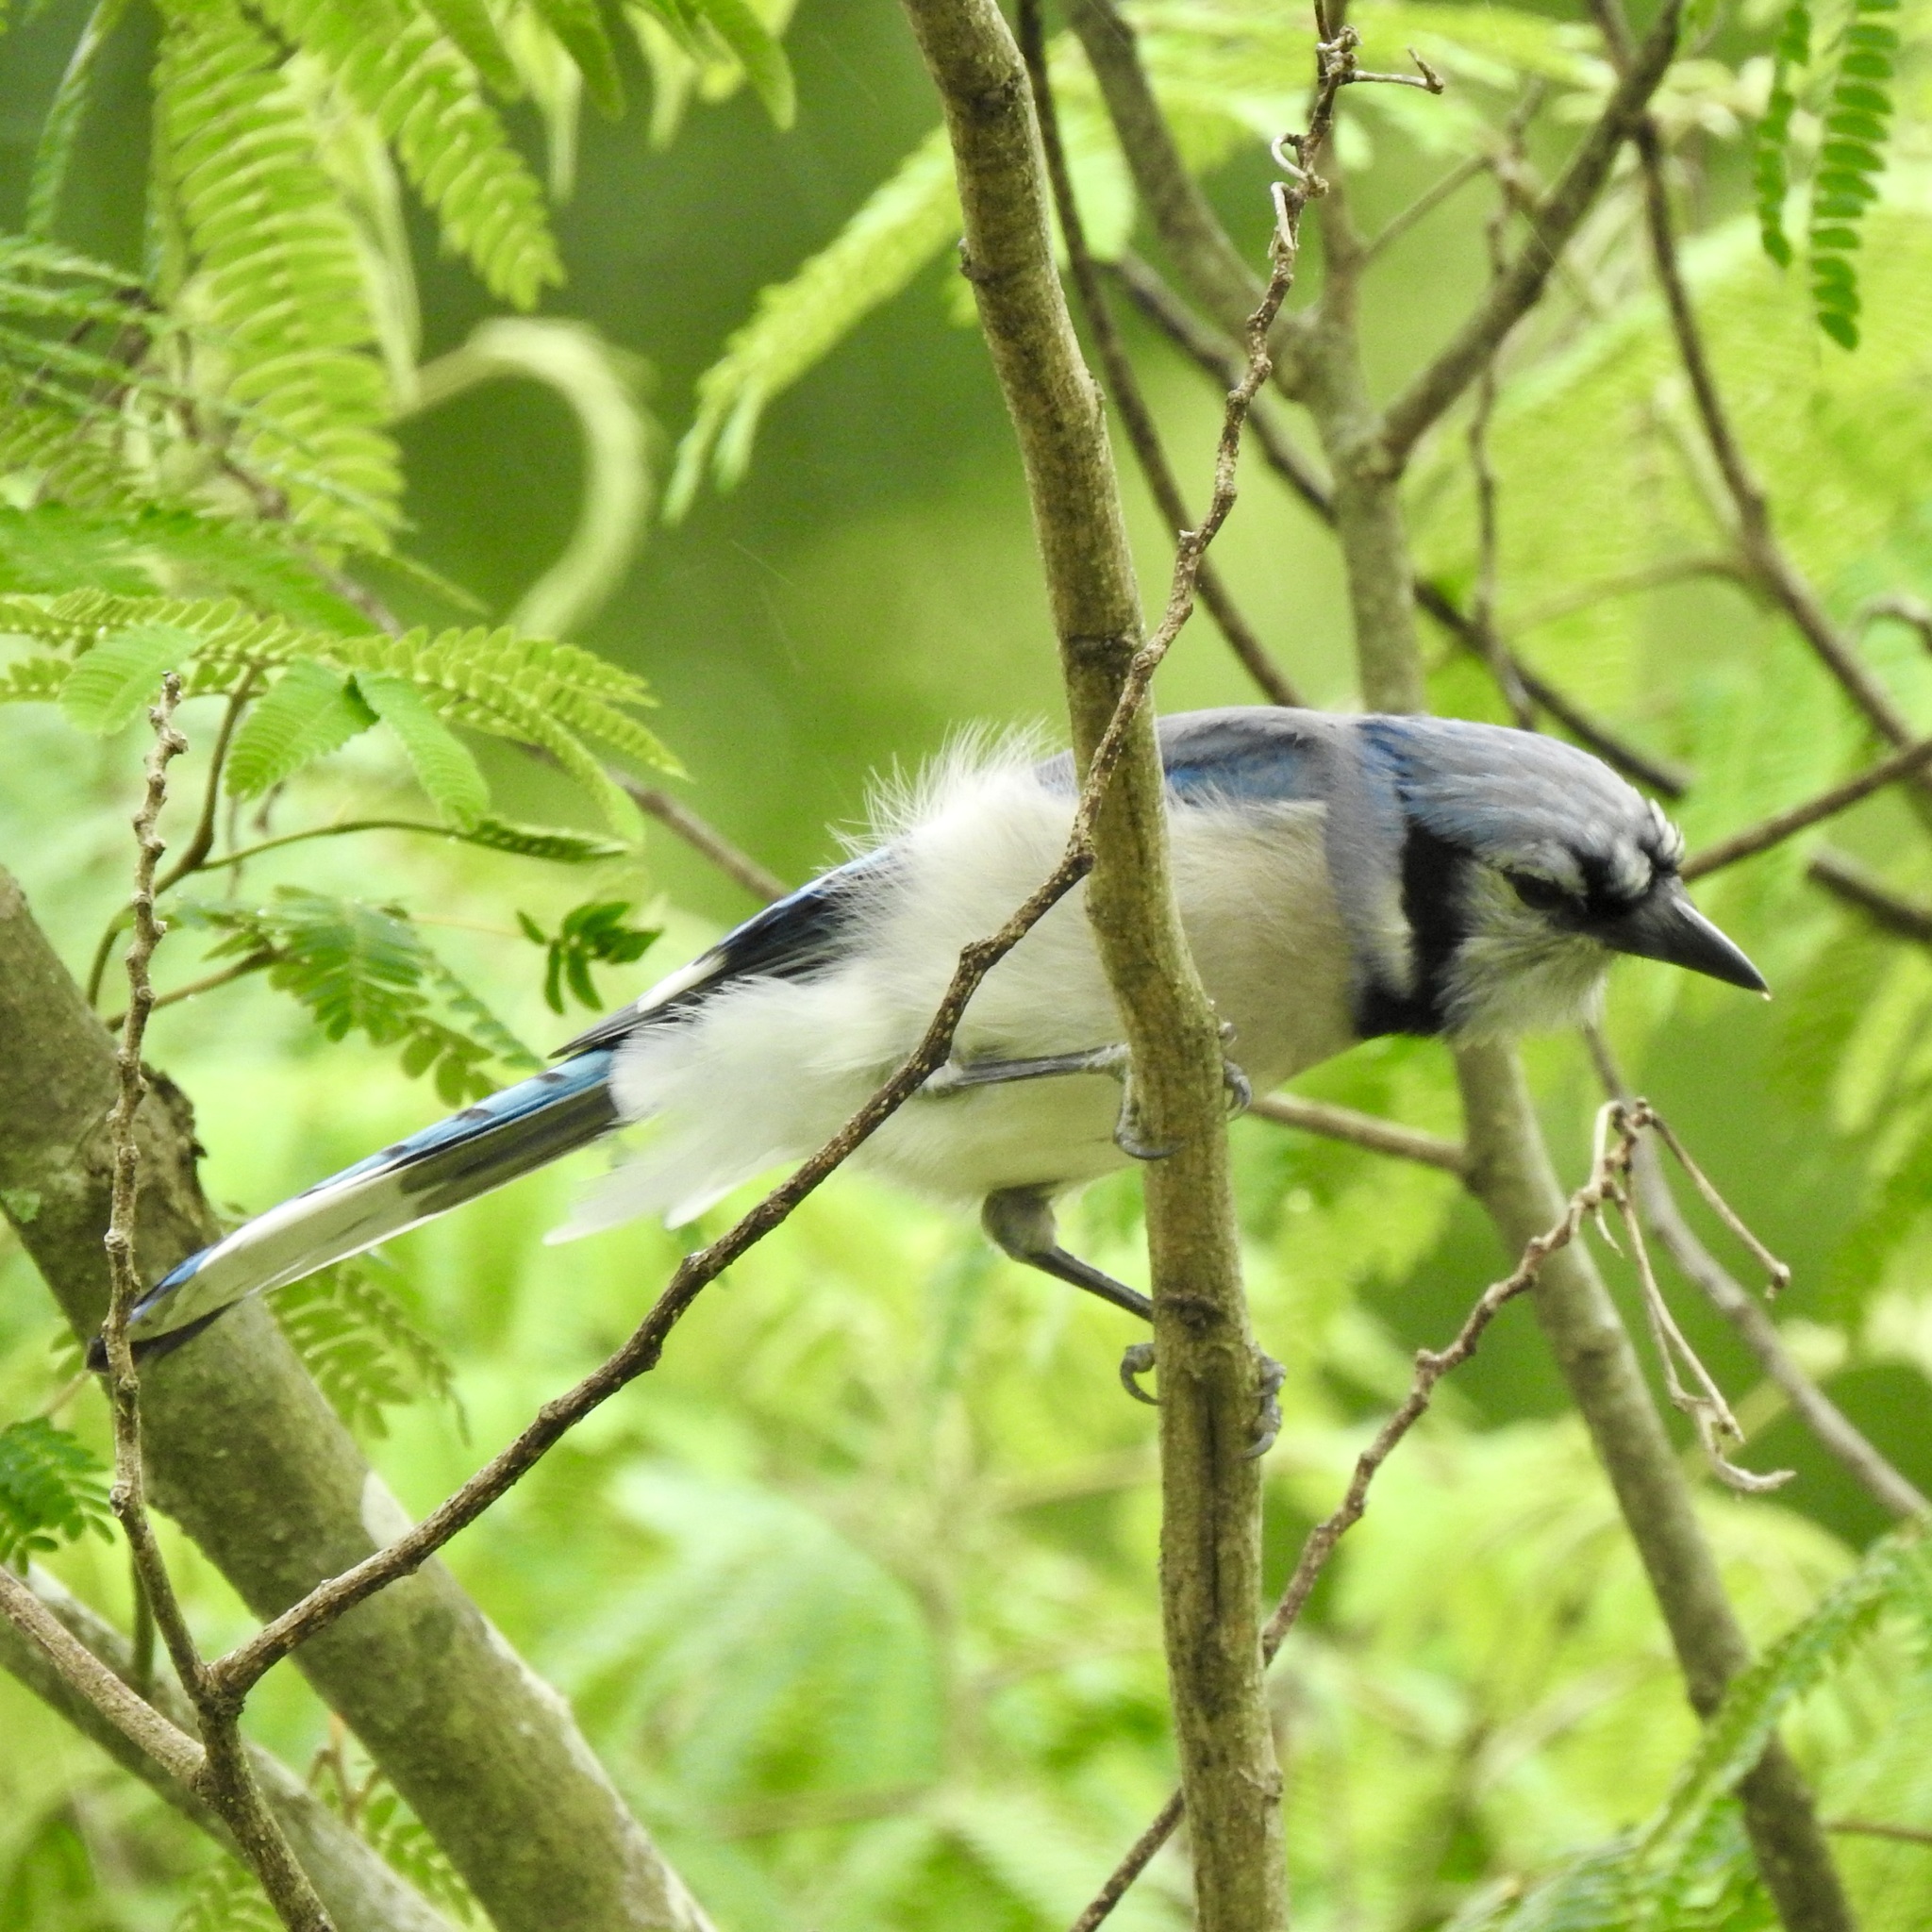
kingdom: Animalia
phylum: Chordata
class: Aves
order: Passeriformes
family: Corvidae
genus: Cyanocitta
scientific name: Cyanocitta cristata
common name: Blue jay
